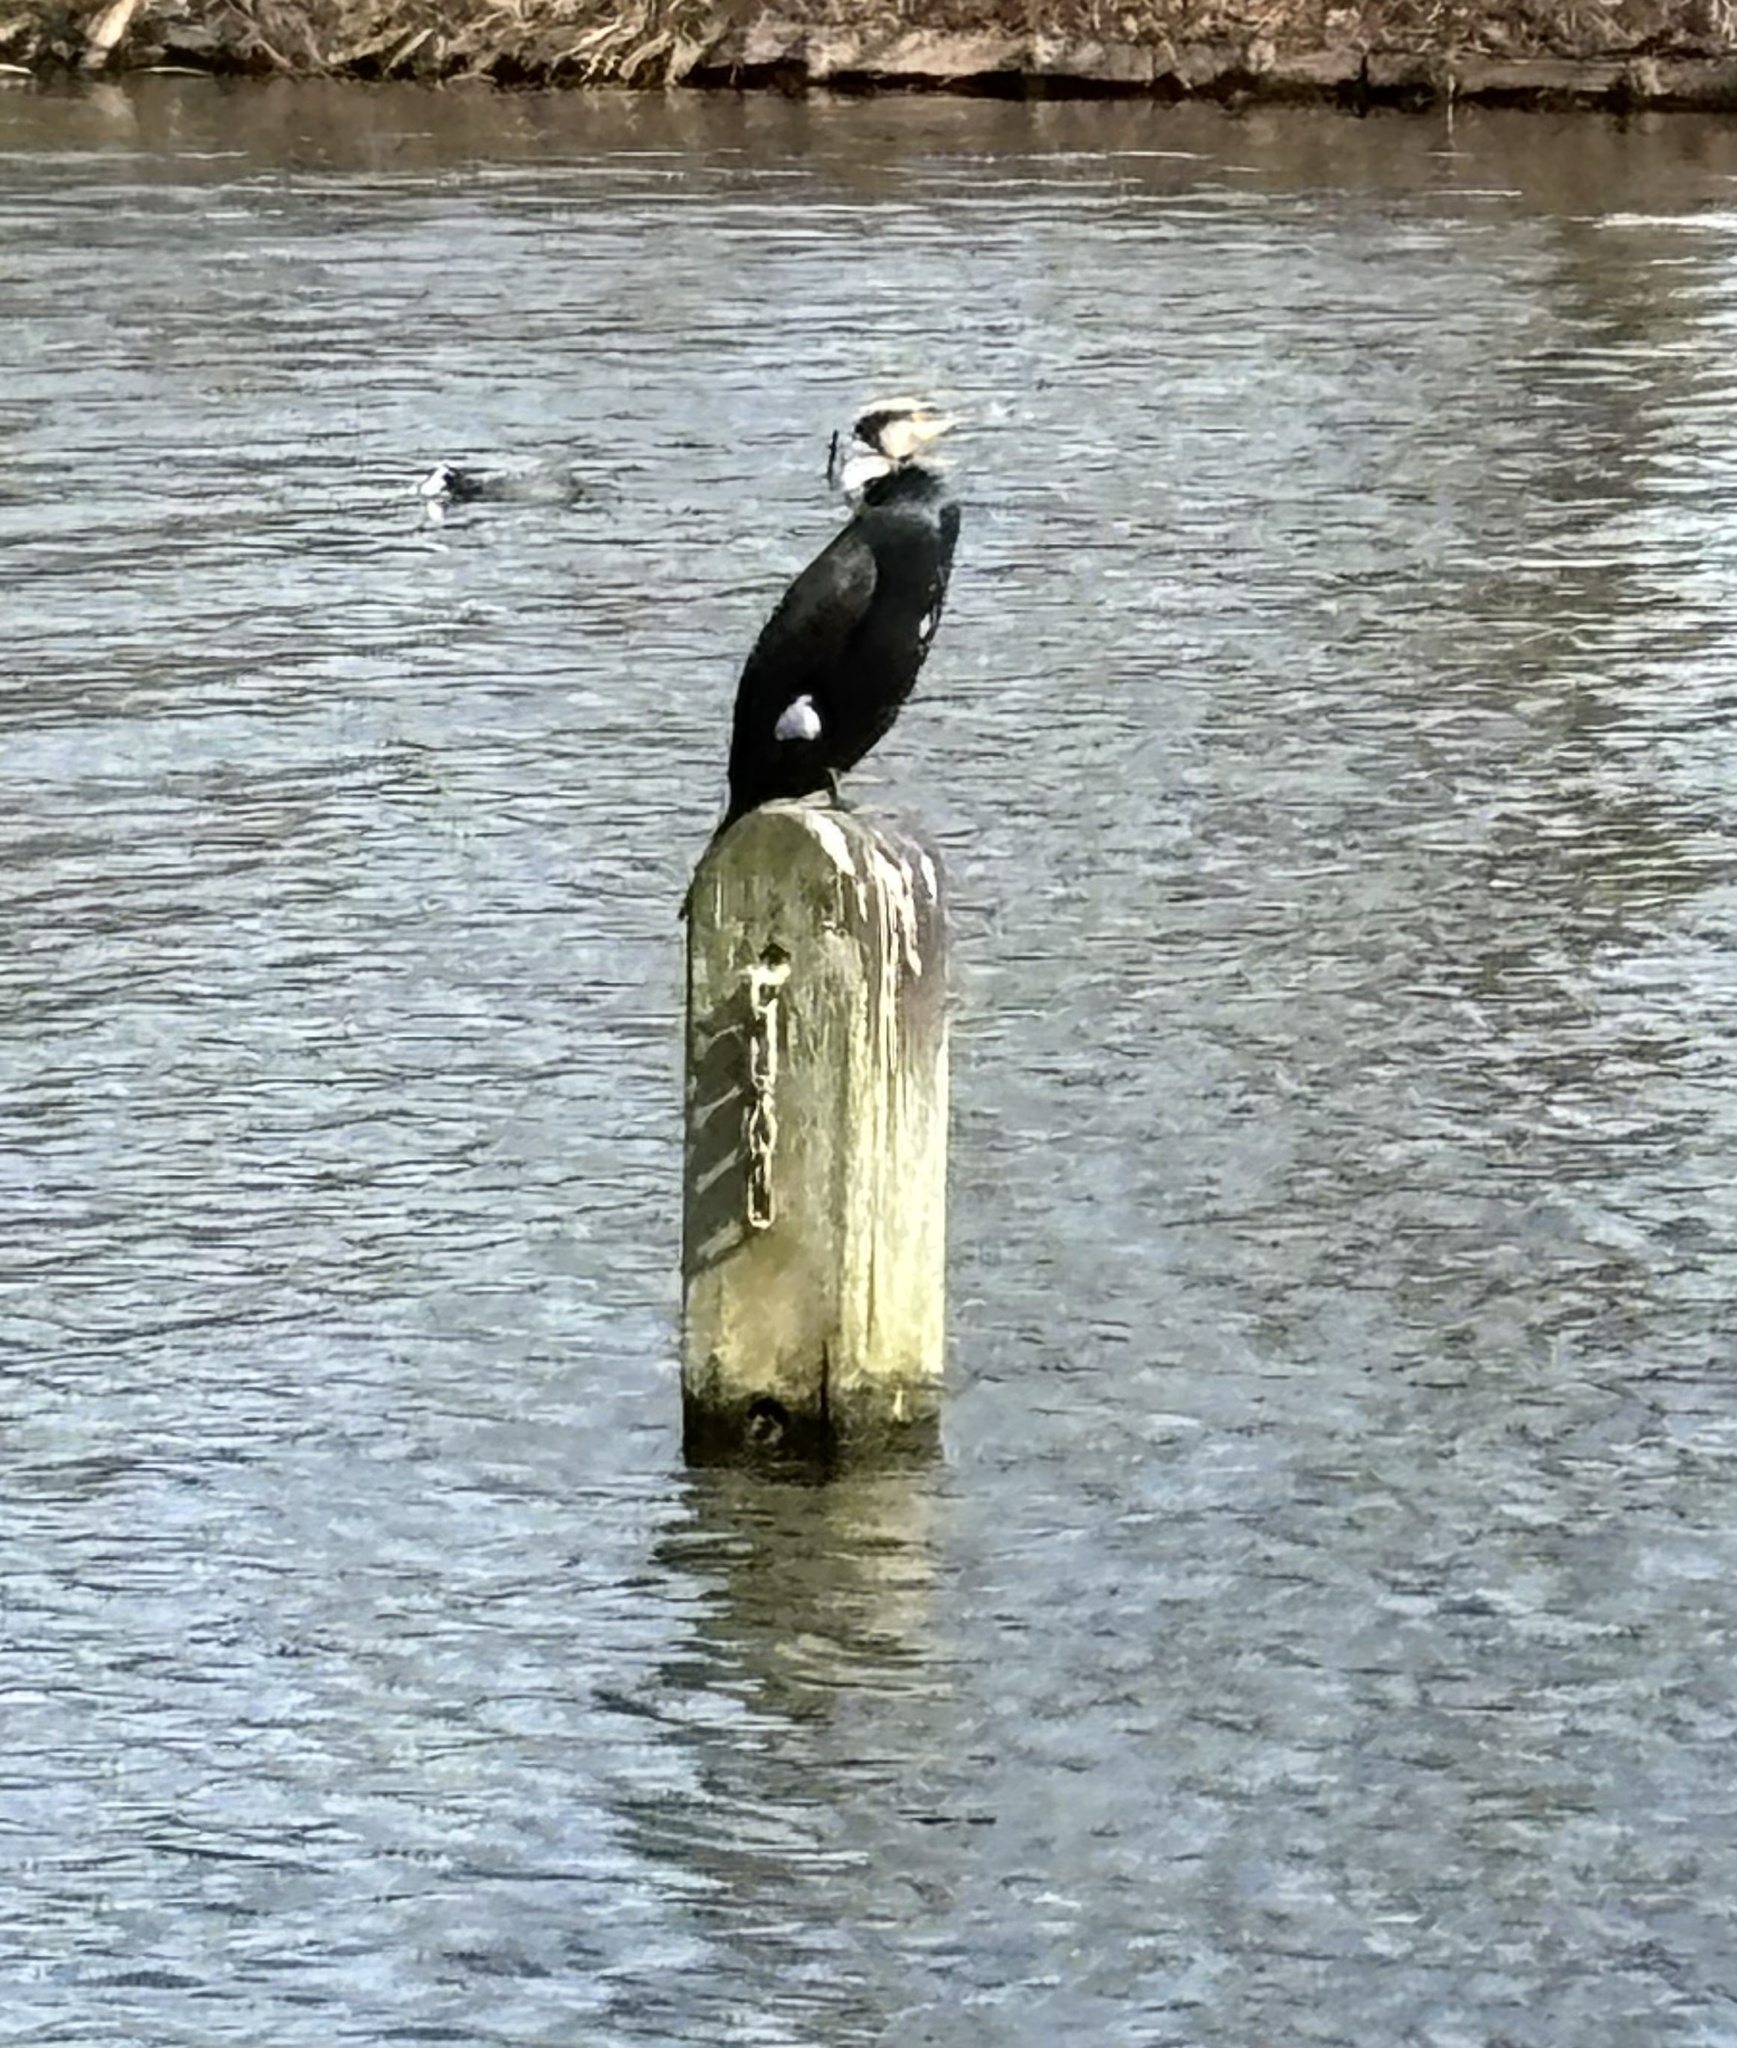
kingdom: Animalia
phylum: Chordata
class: Aves
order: Suliformes
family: Phalacrocoracidae
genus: Phalacrocorax
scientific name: Phalacrocorax carbo
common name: Great cormorant
